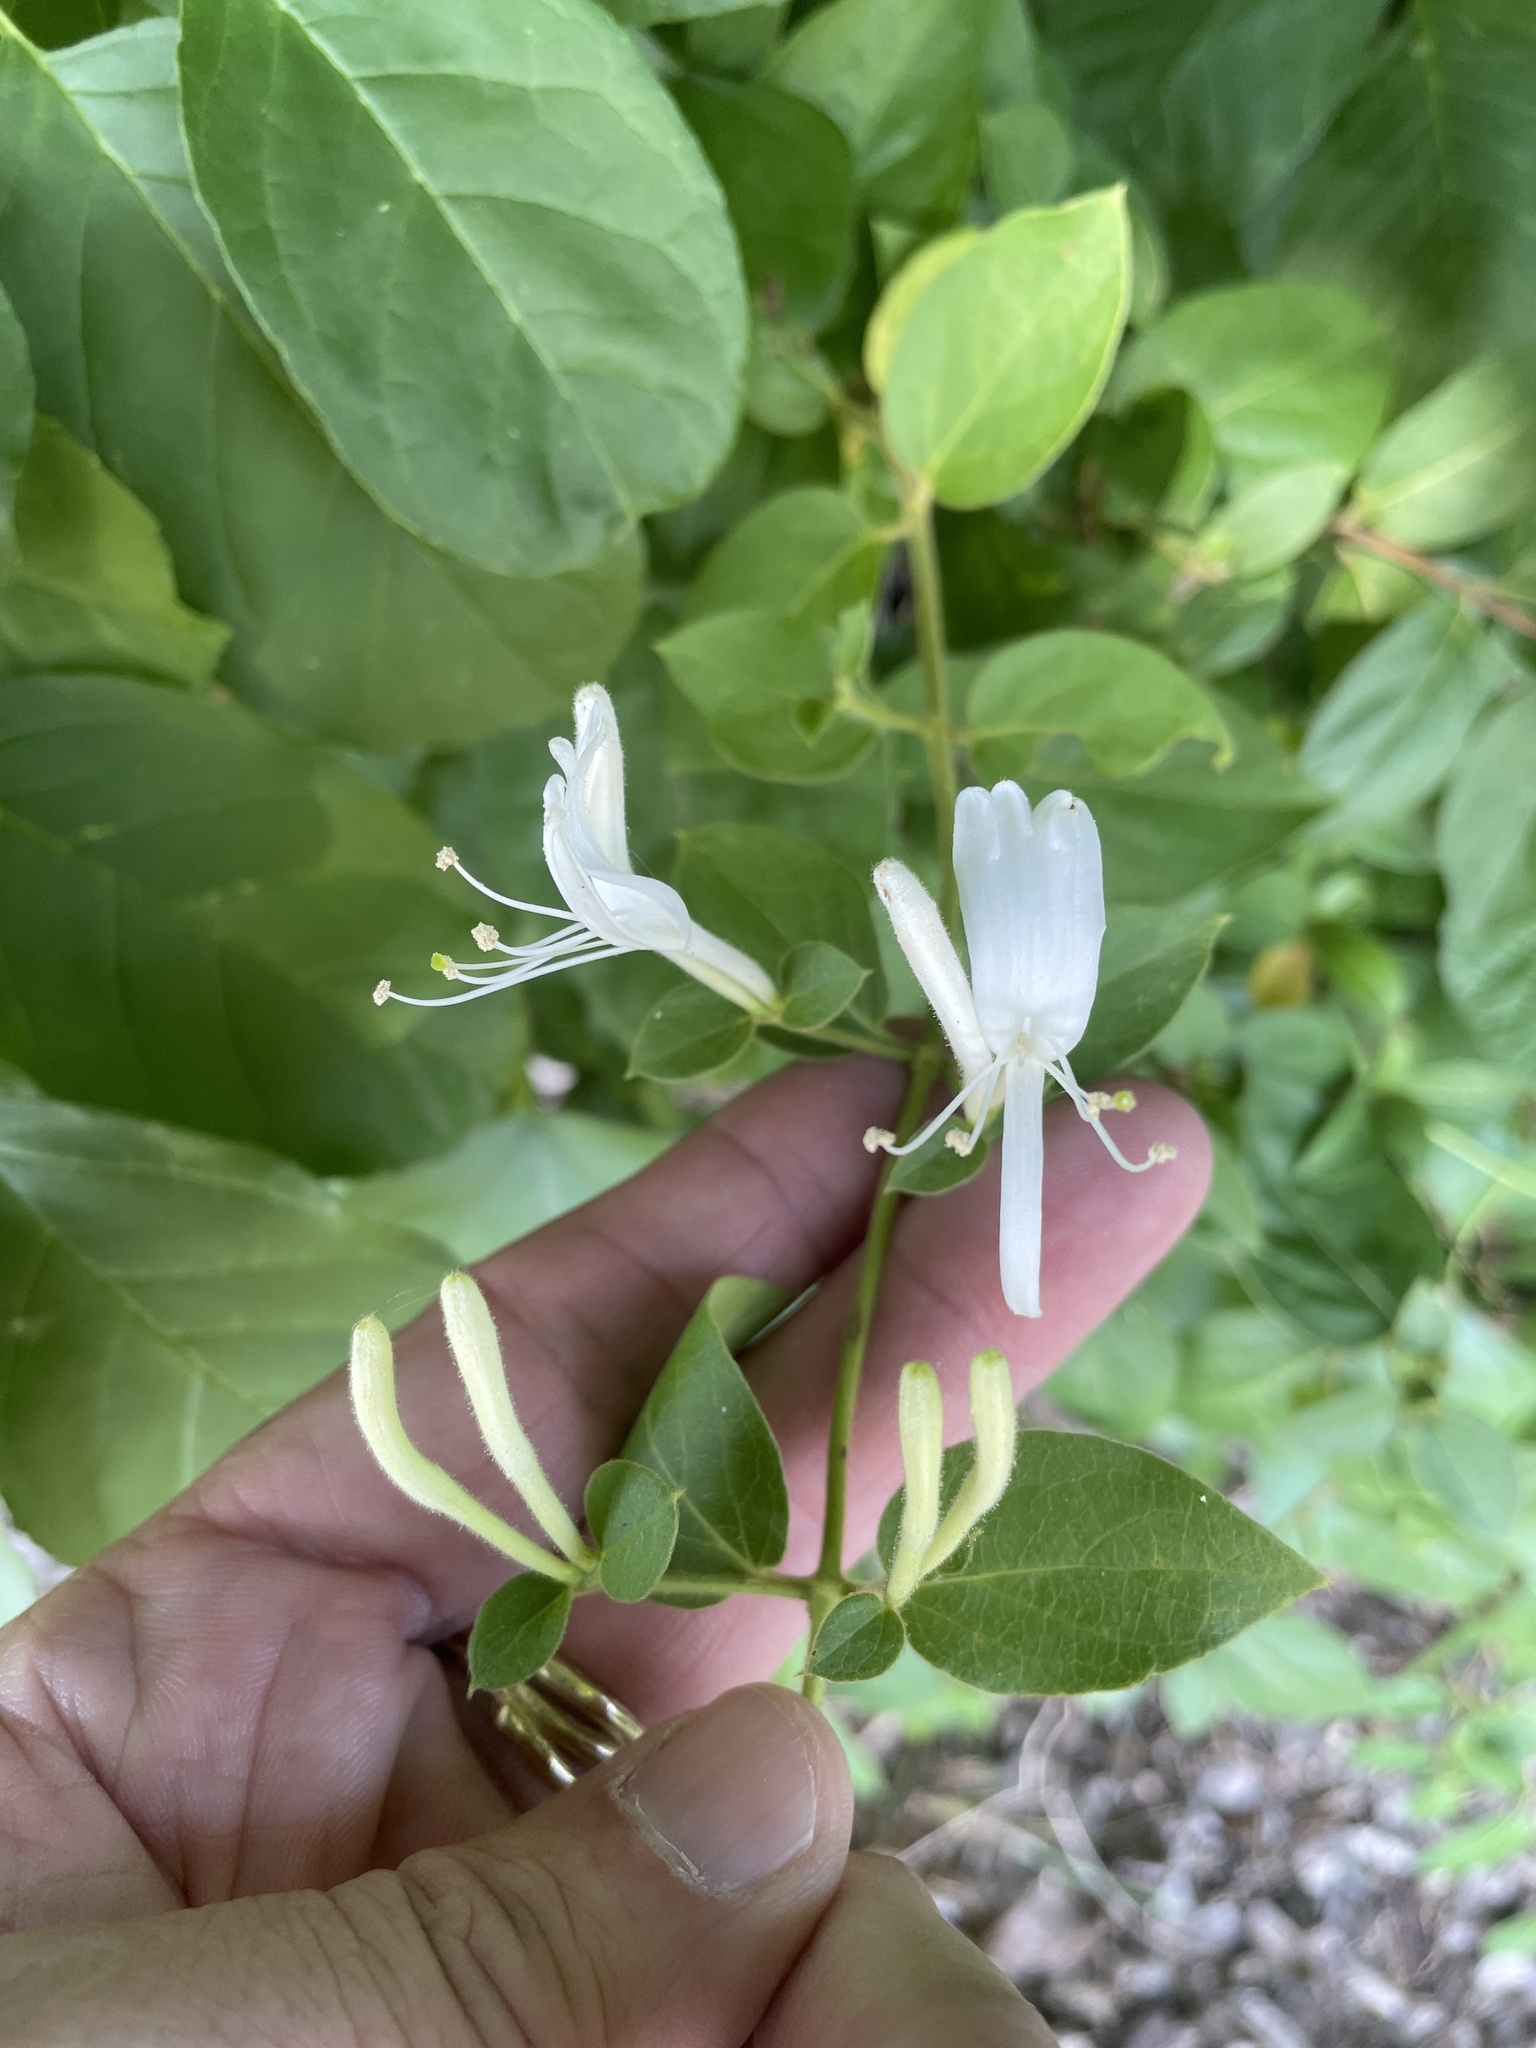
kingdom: Plantae
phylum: Tracheophyta
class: Magnoliopsida
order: Dipsacales
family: Caprifoliaceae
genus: Lonicera
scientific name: Lonicera japonica
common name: Japanese honeysuckle
